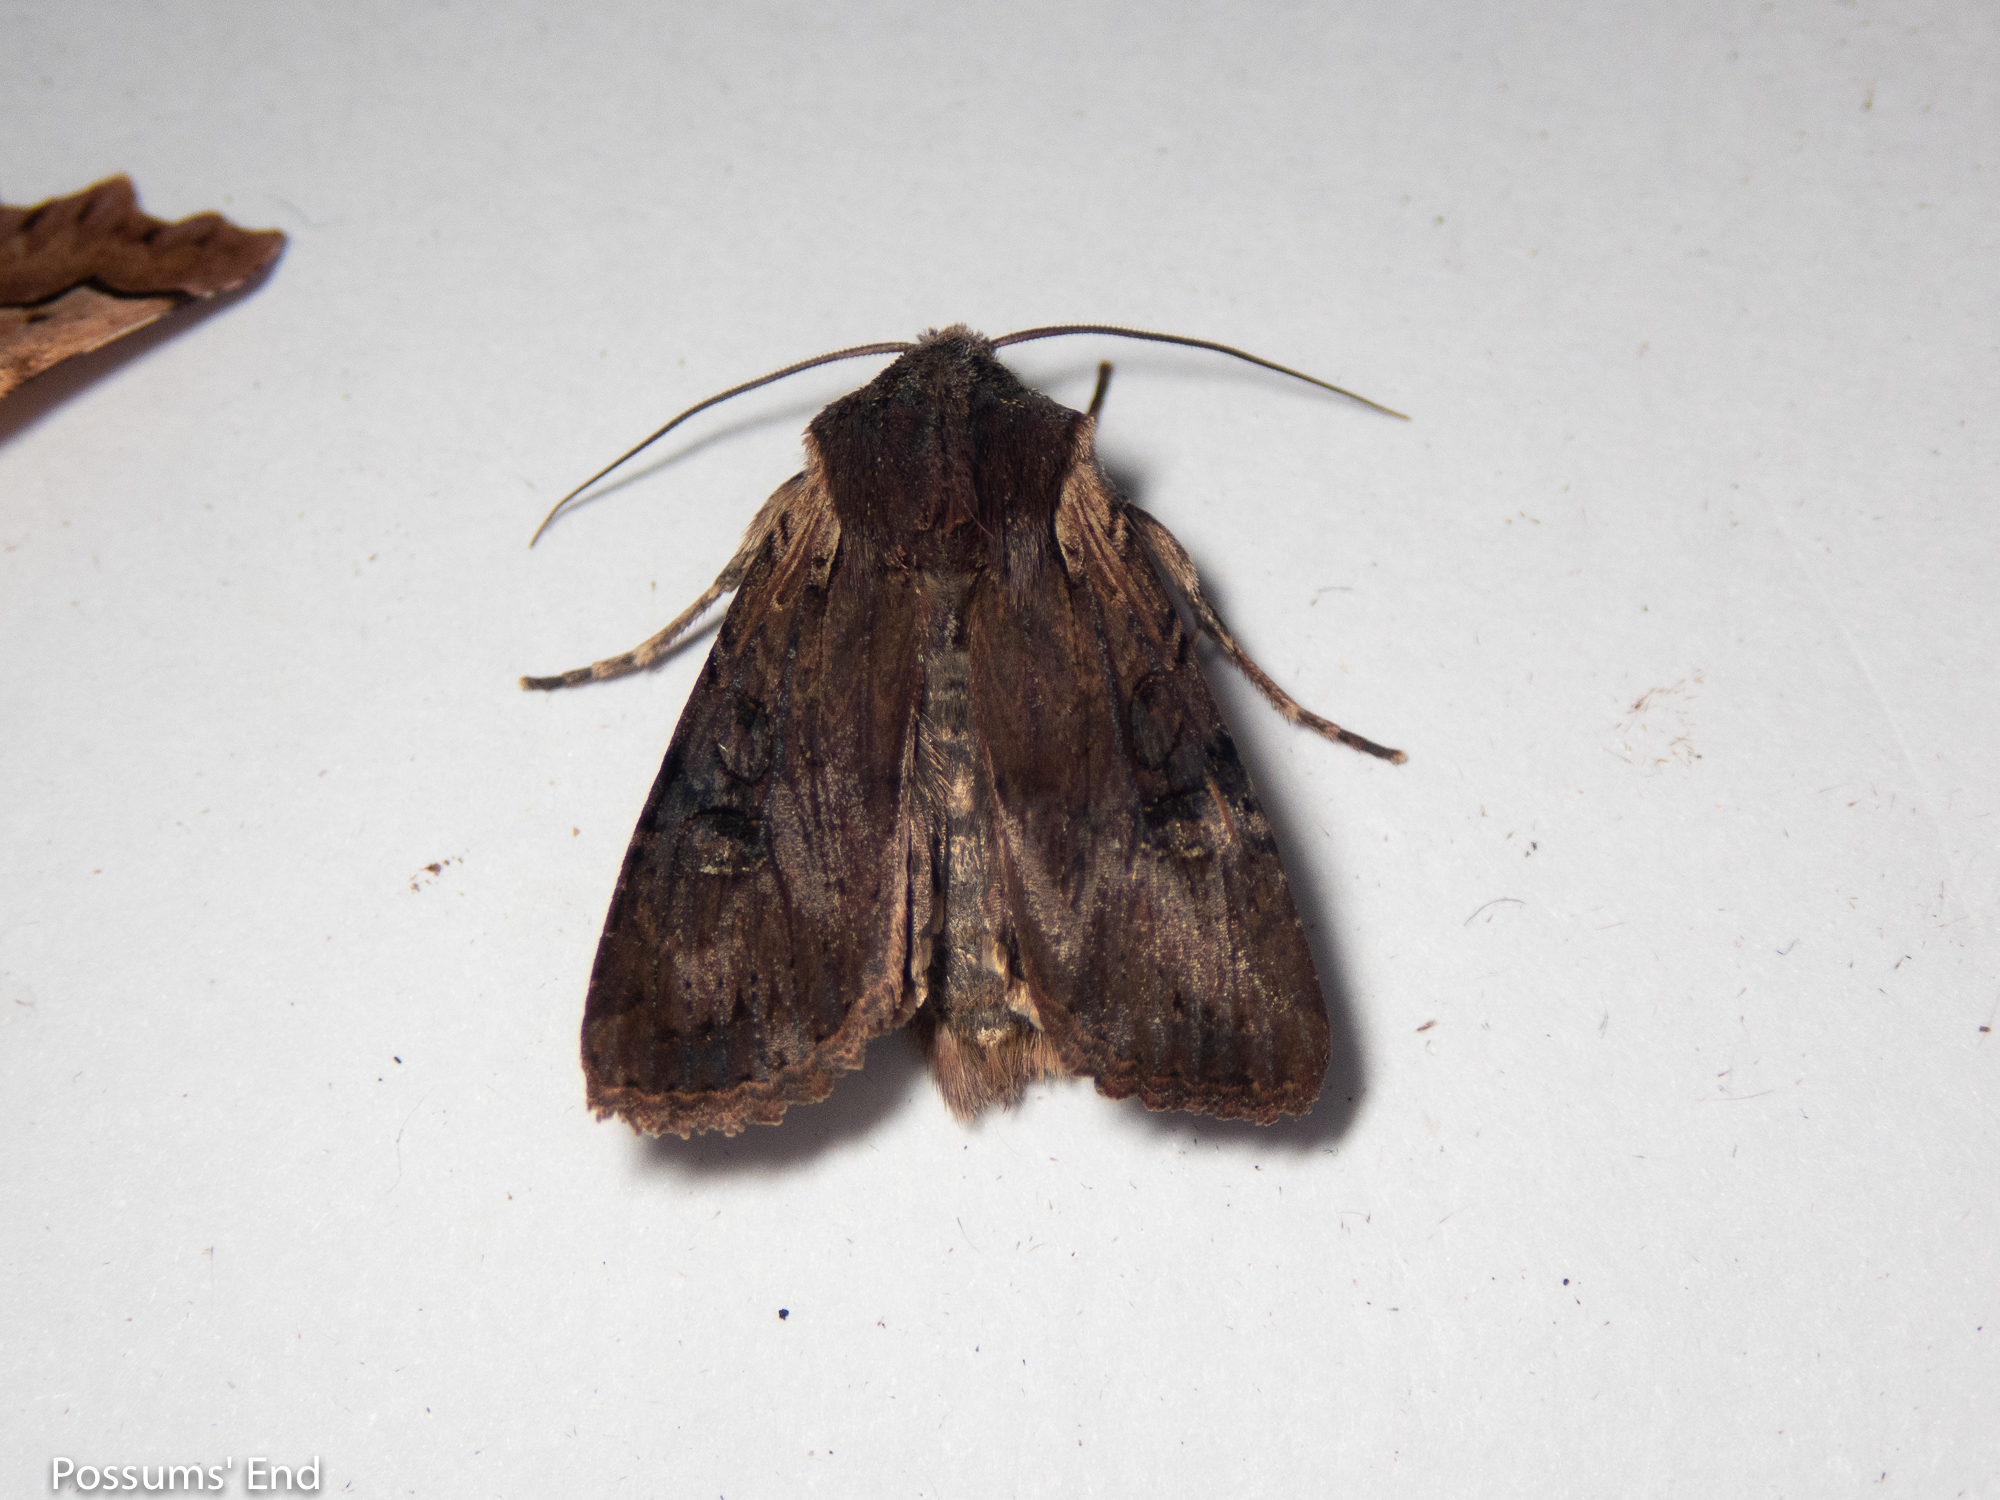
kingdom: Animalia
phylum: Arthropoda
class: Insecta
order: Lepidoptera
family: Noctuidae
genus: Ichneutica
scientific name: Ichneutica omoplaca
